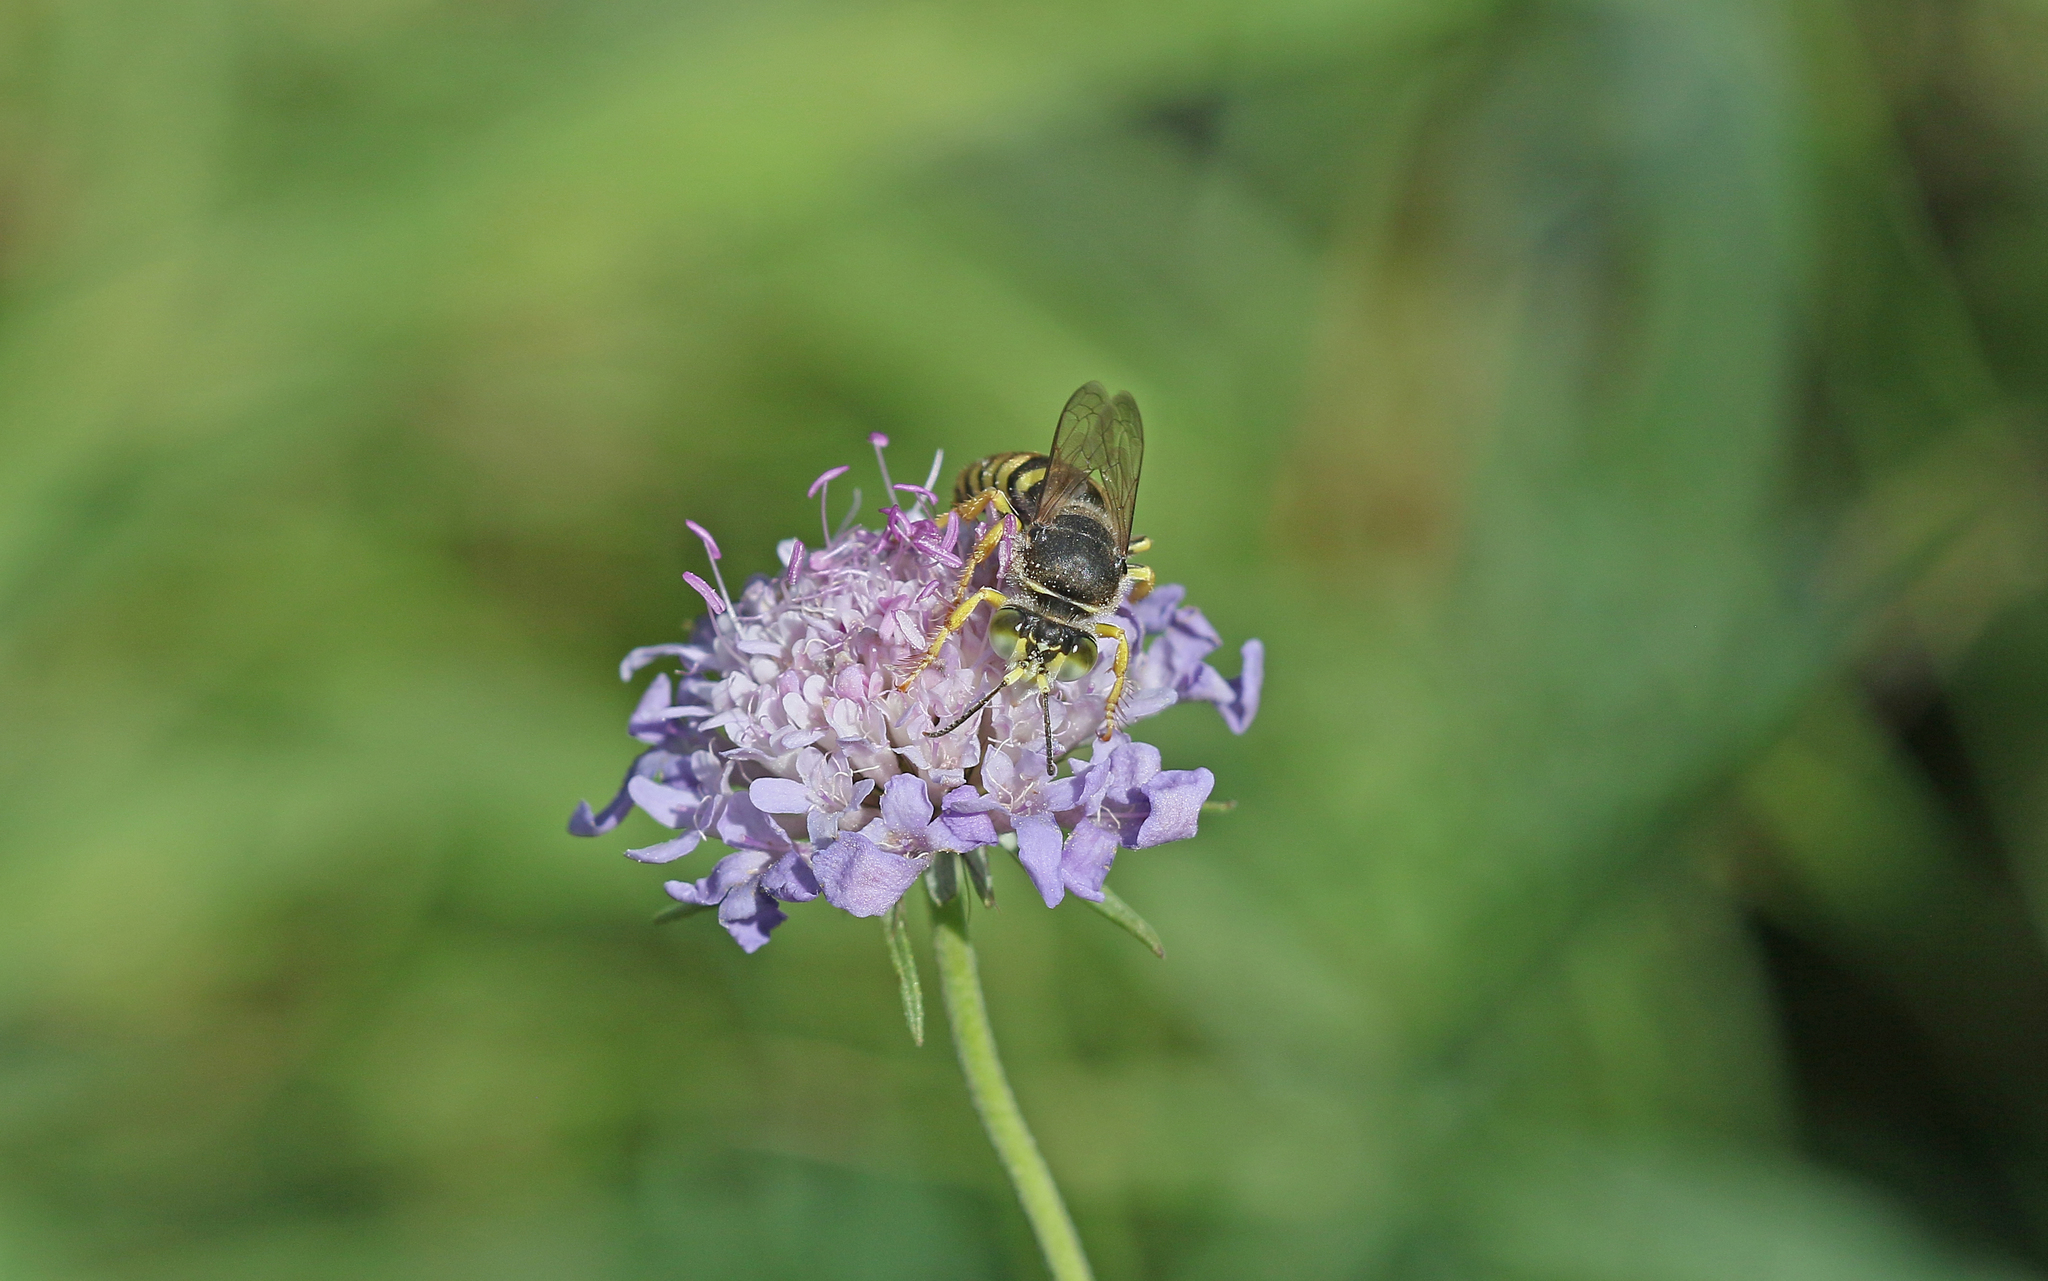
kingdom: Animalia
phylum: Arthropoda
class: Insecta
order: Hymenoptera
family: Crabronidae
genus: Bembix
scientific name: Bembix rostrata
